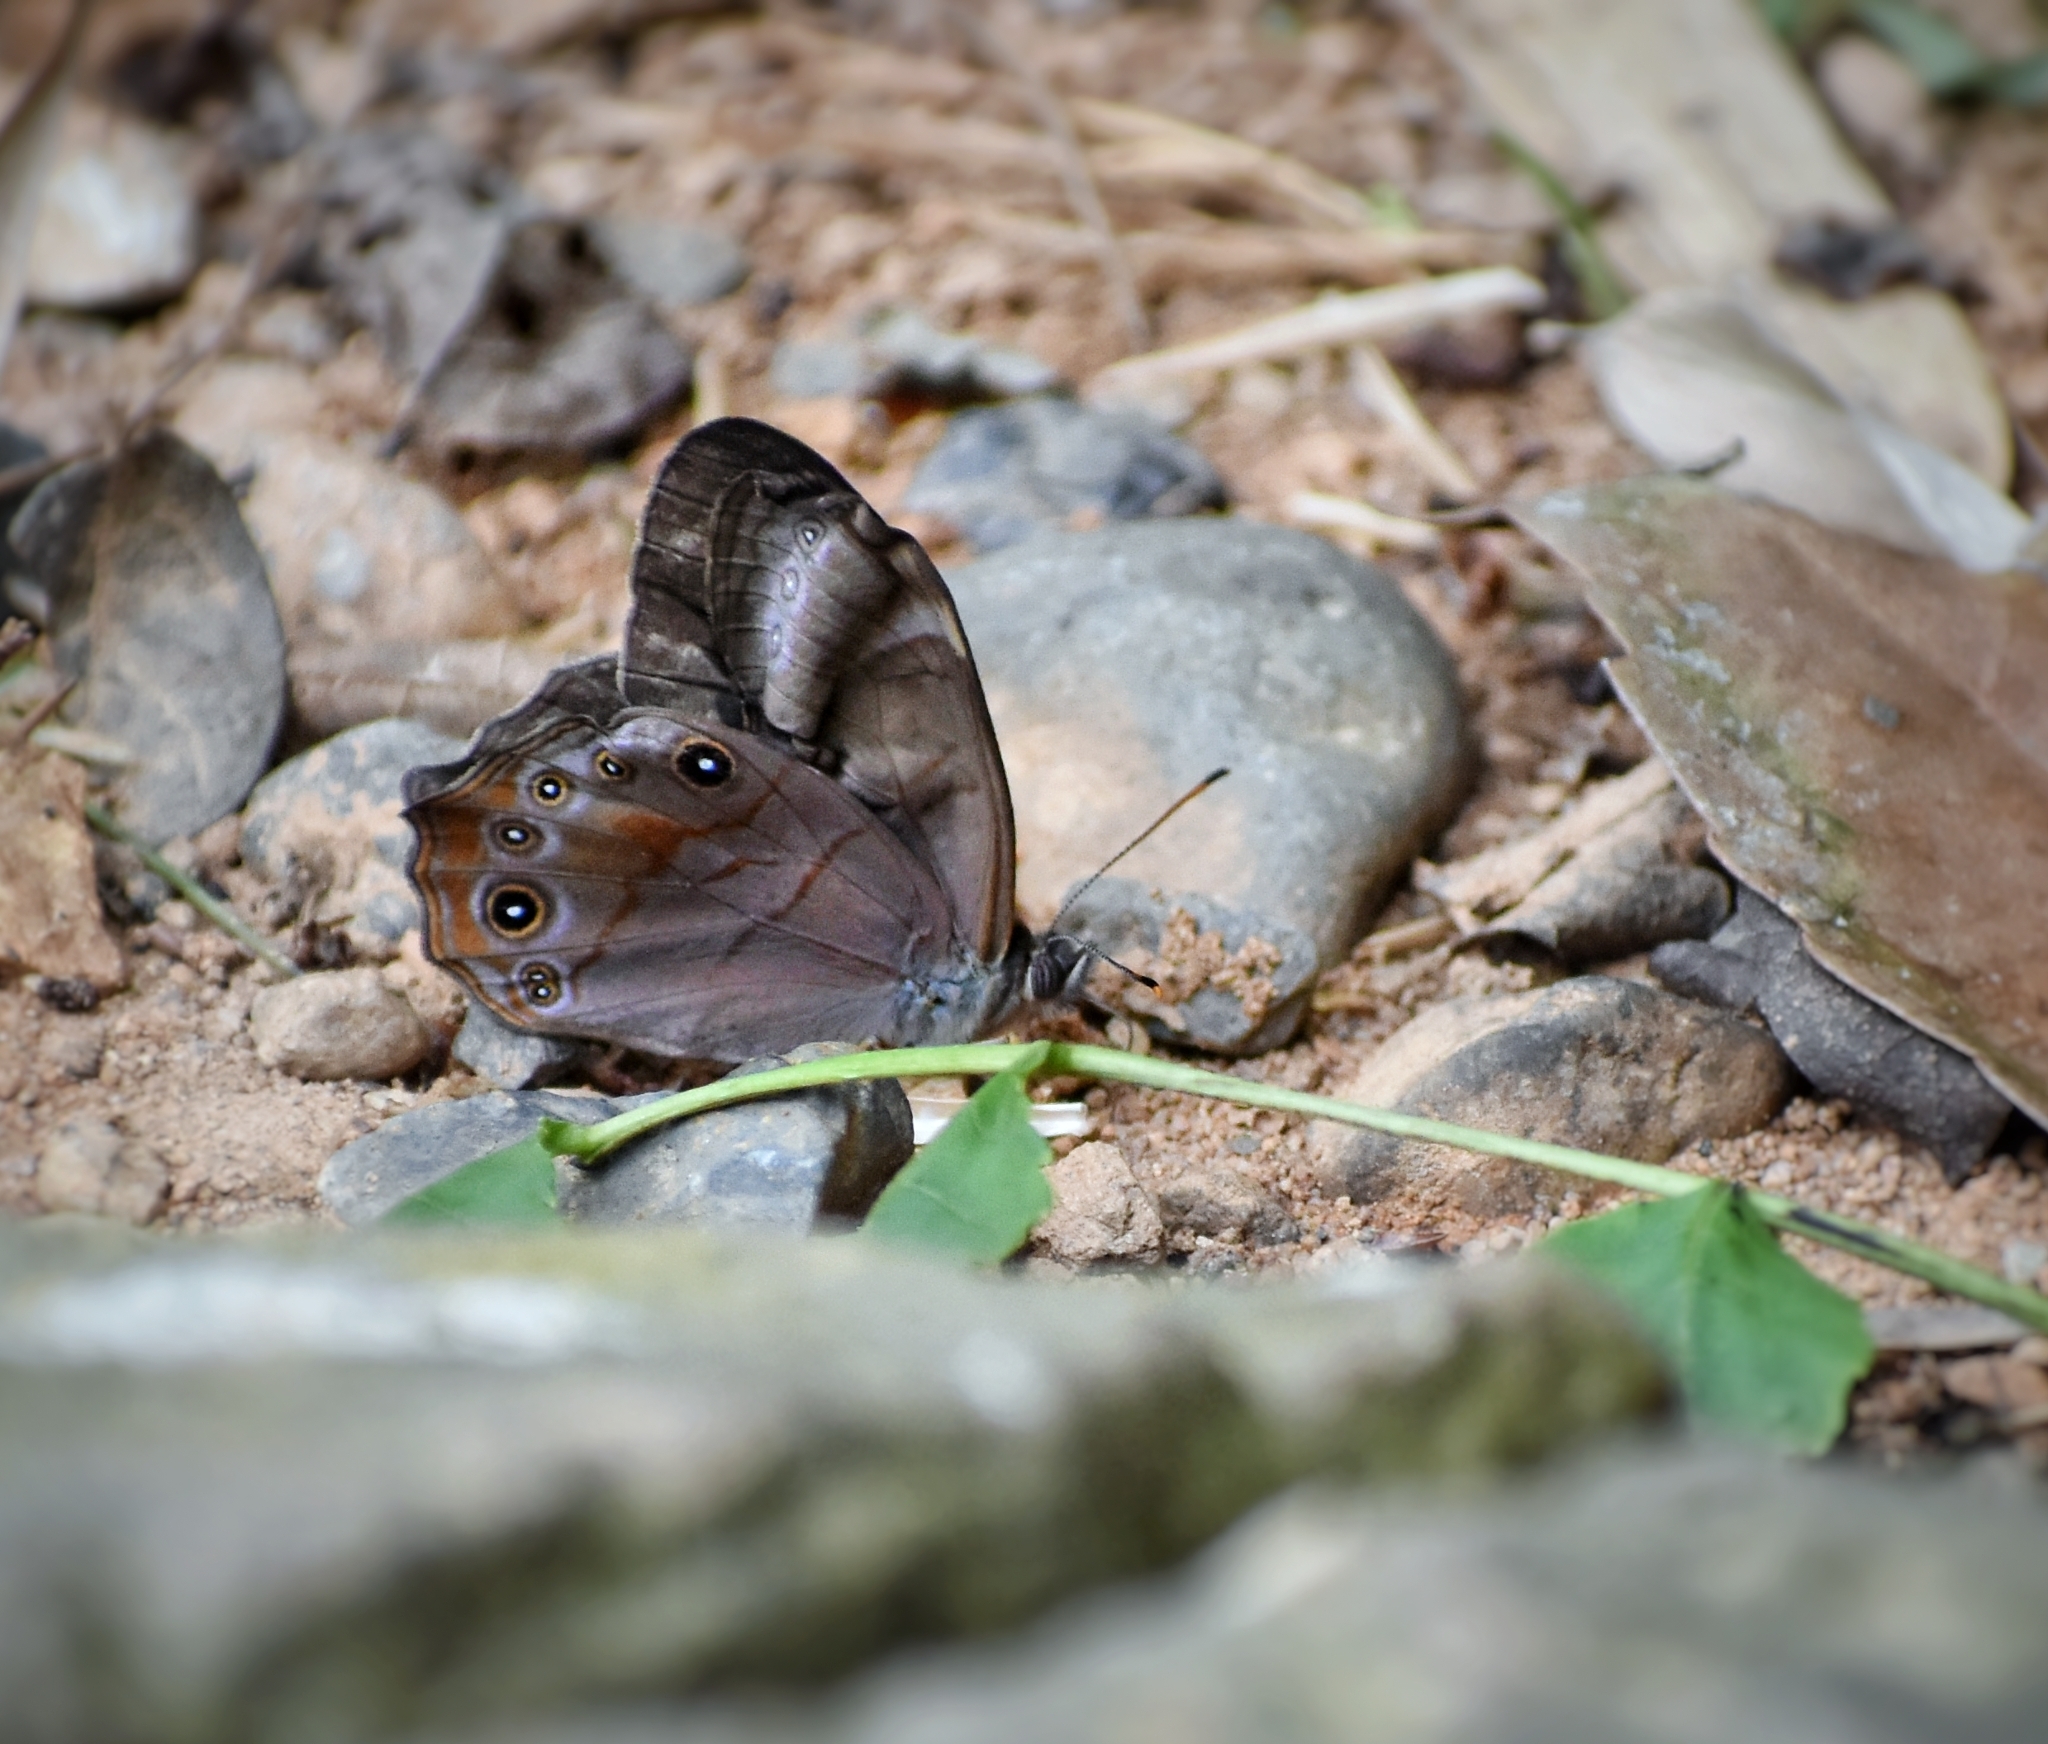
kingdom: Animalia
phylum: Arthropoda
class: Insecta
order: Lepidoptera
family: Nymphalidae
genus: Lethe
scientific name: Lethe
